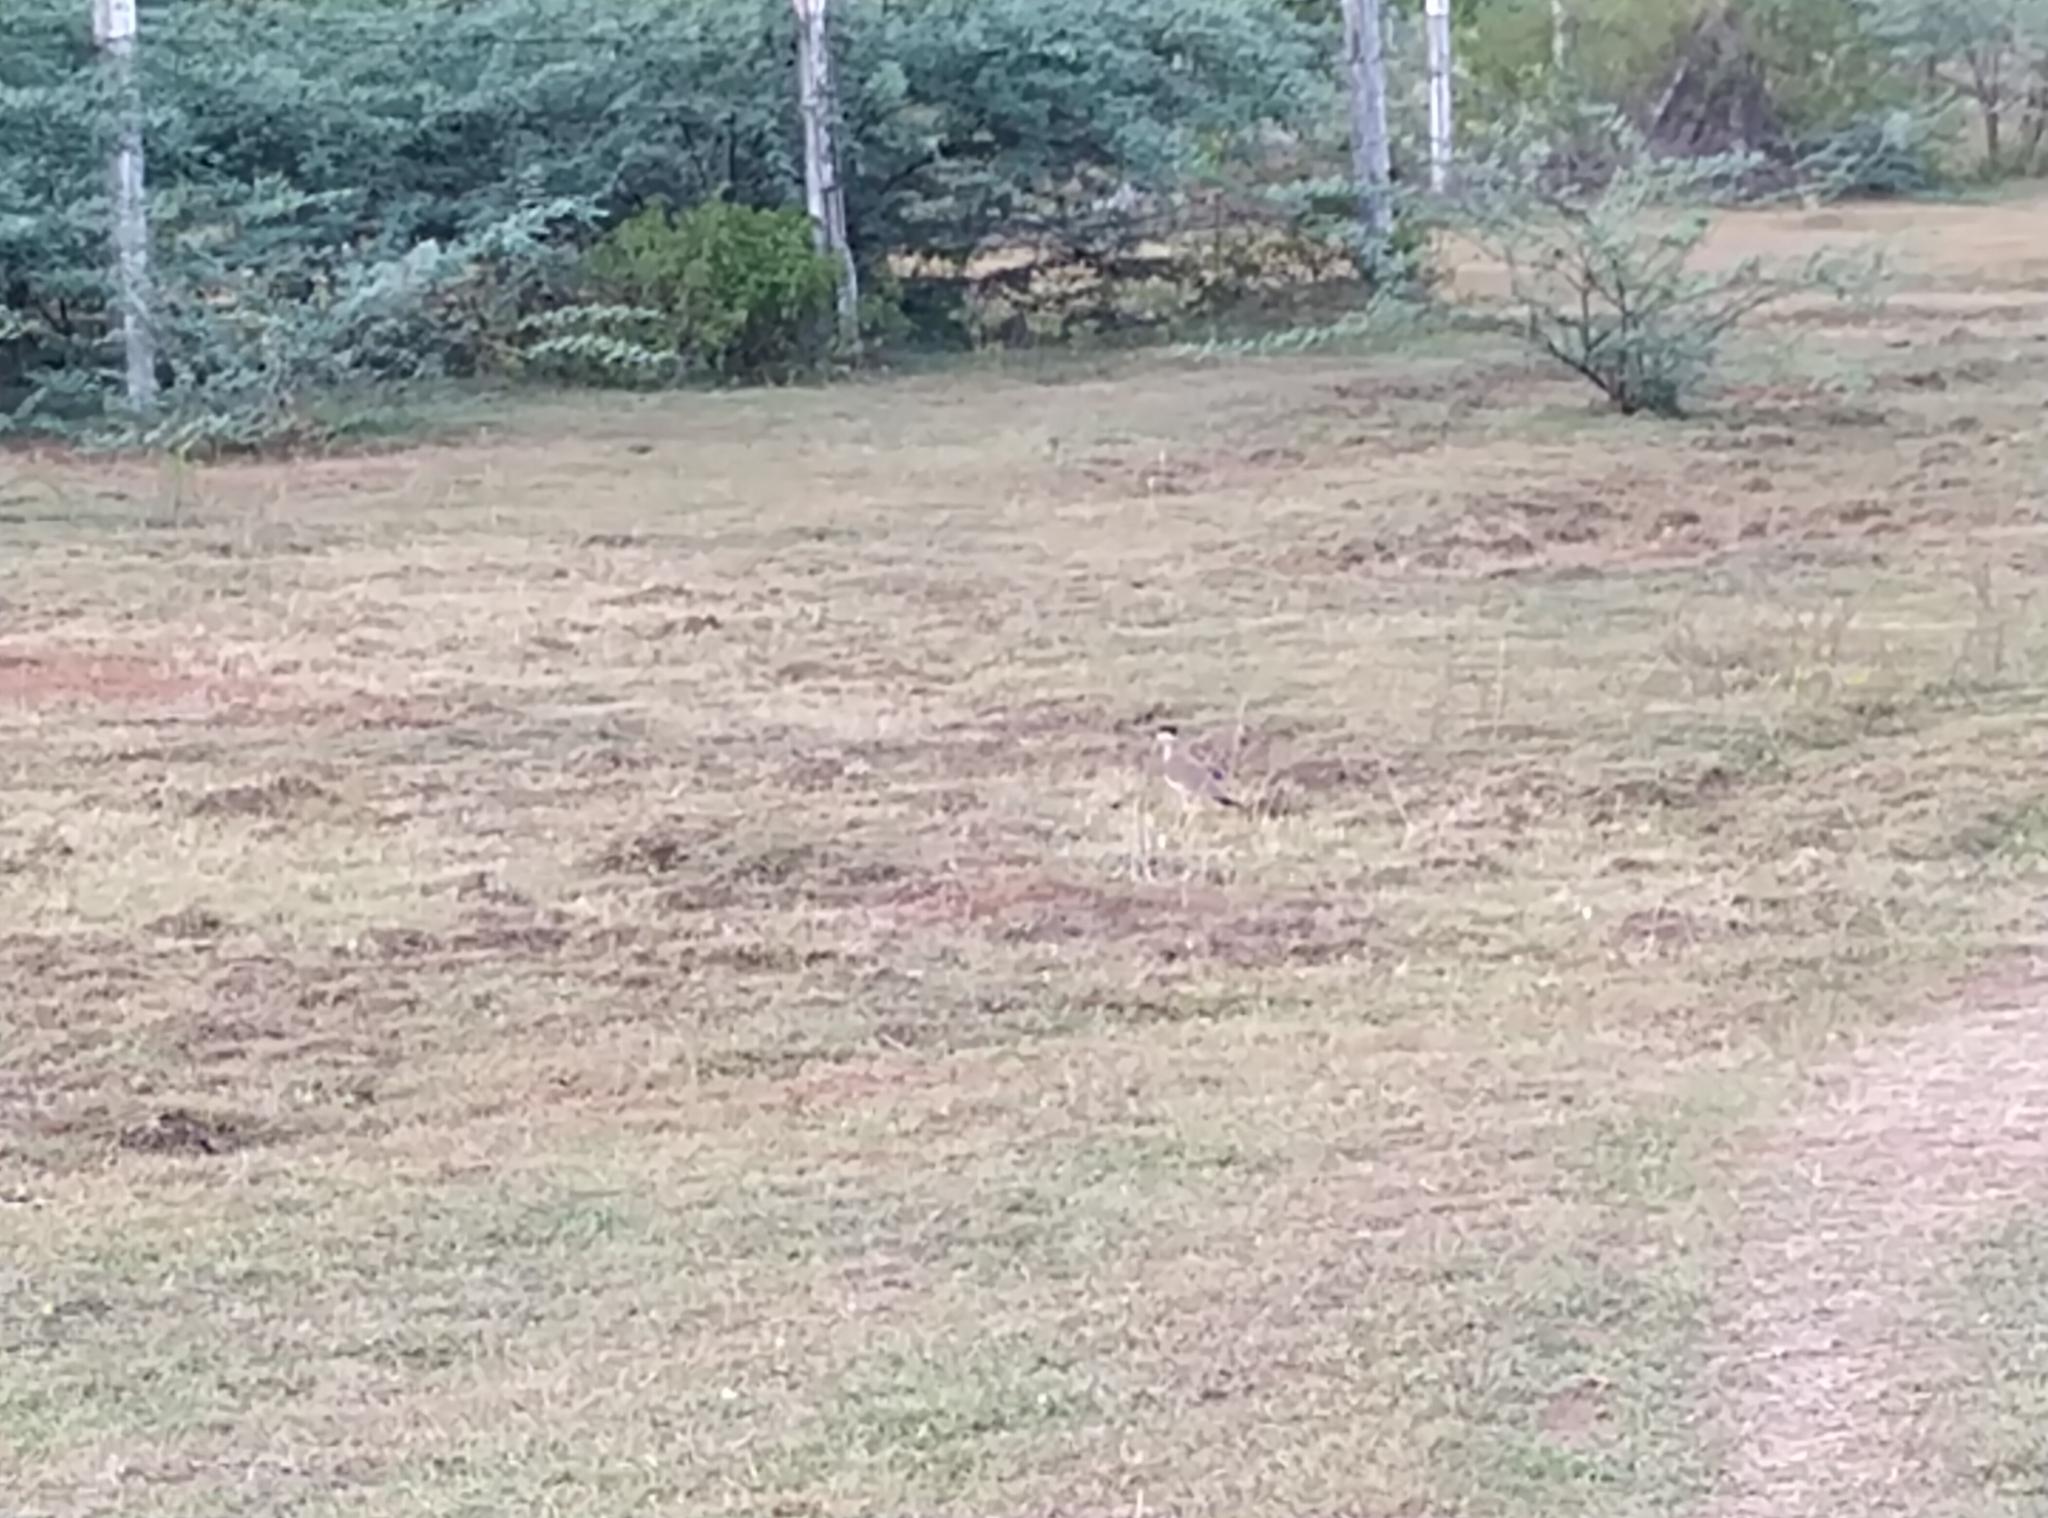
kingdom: Animalia
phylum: Chordata
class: Aves
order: Charadriiformes
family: Charadriidae
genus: Vanellus
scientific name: Vanellus malabaricus
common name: Yellow-wattled lapwing
